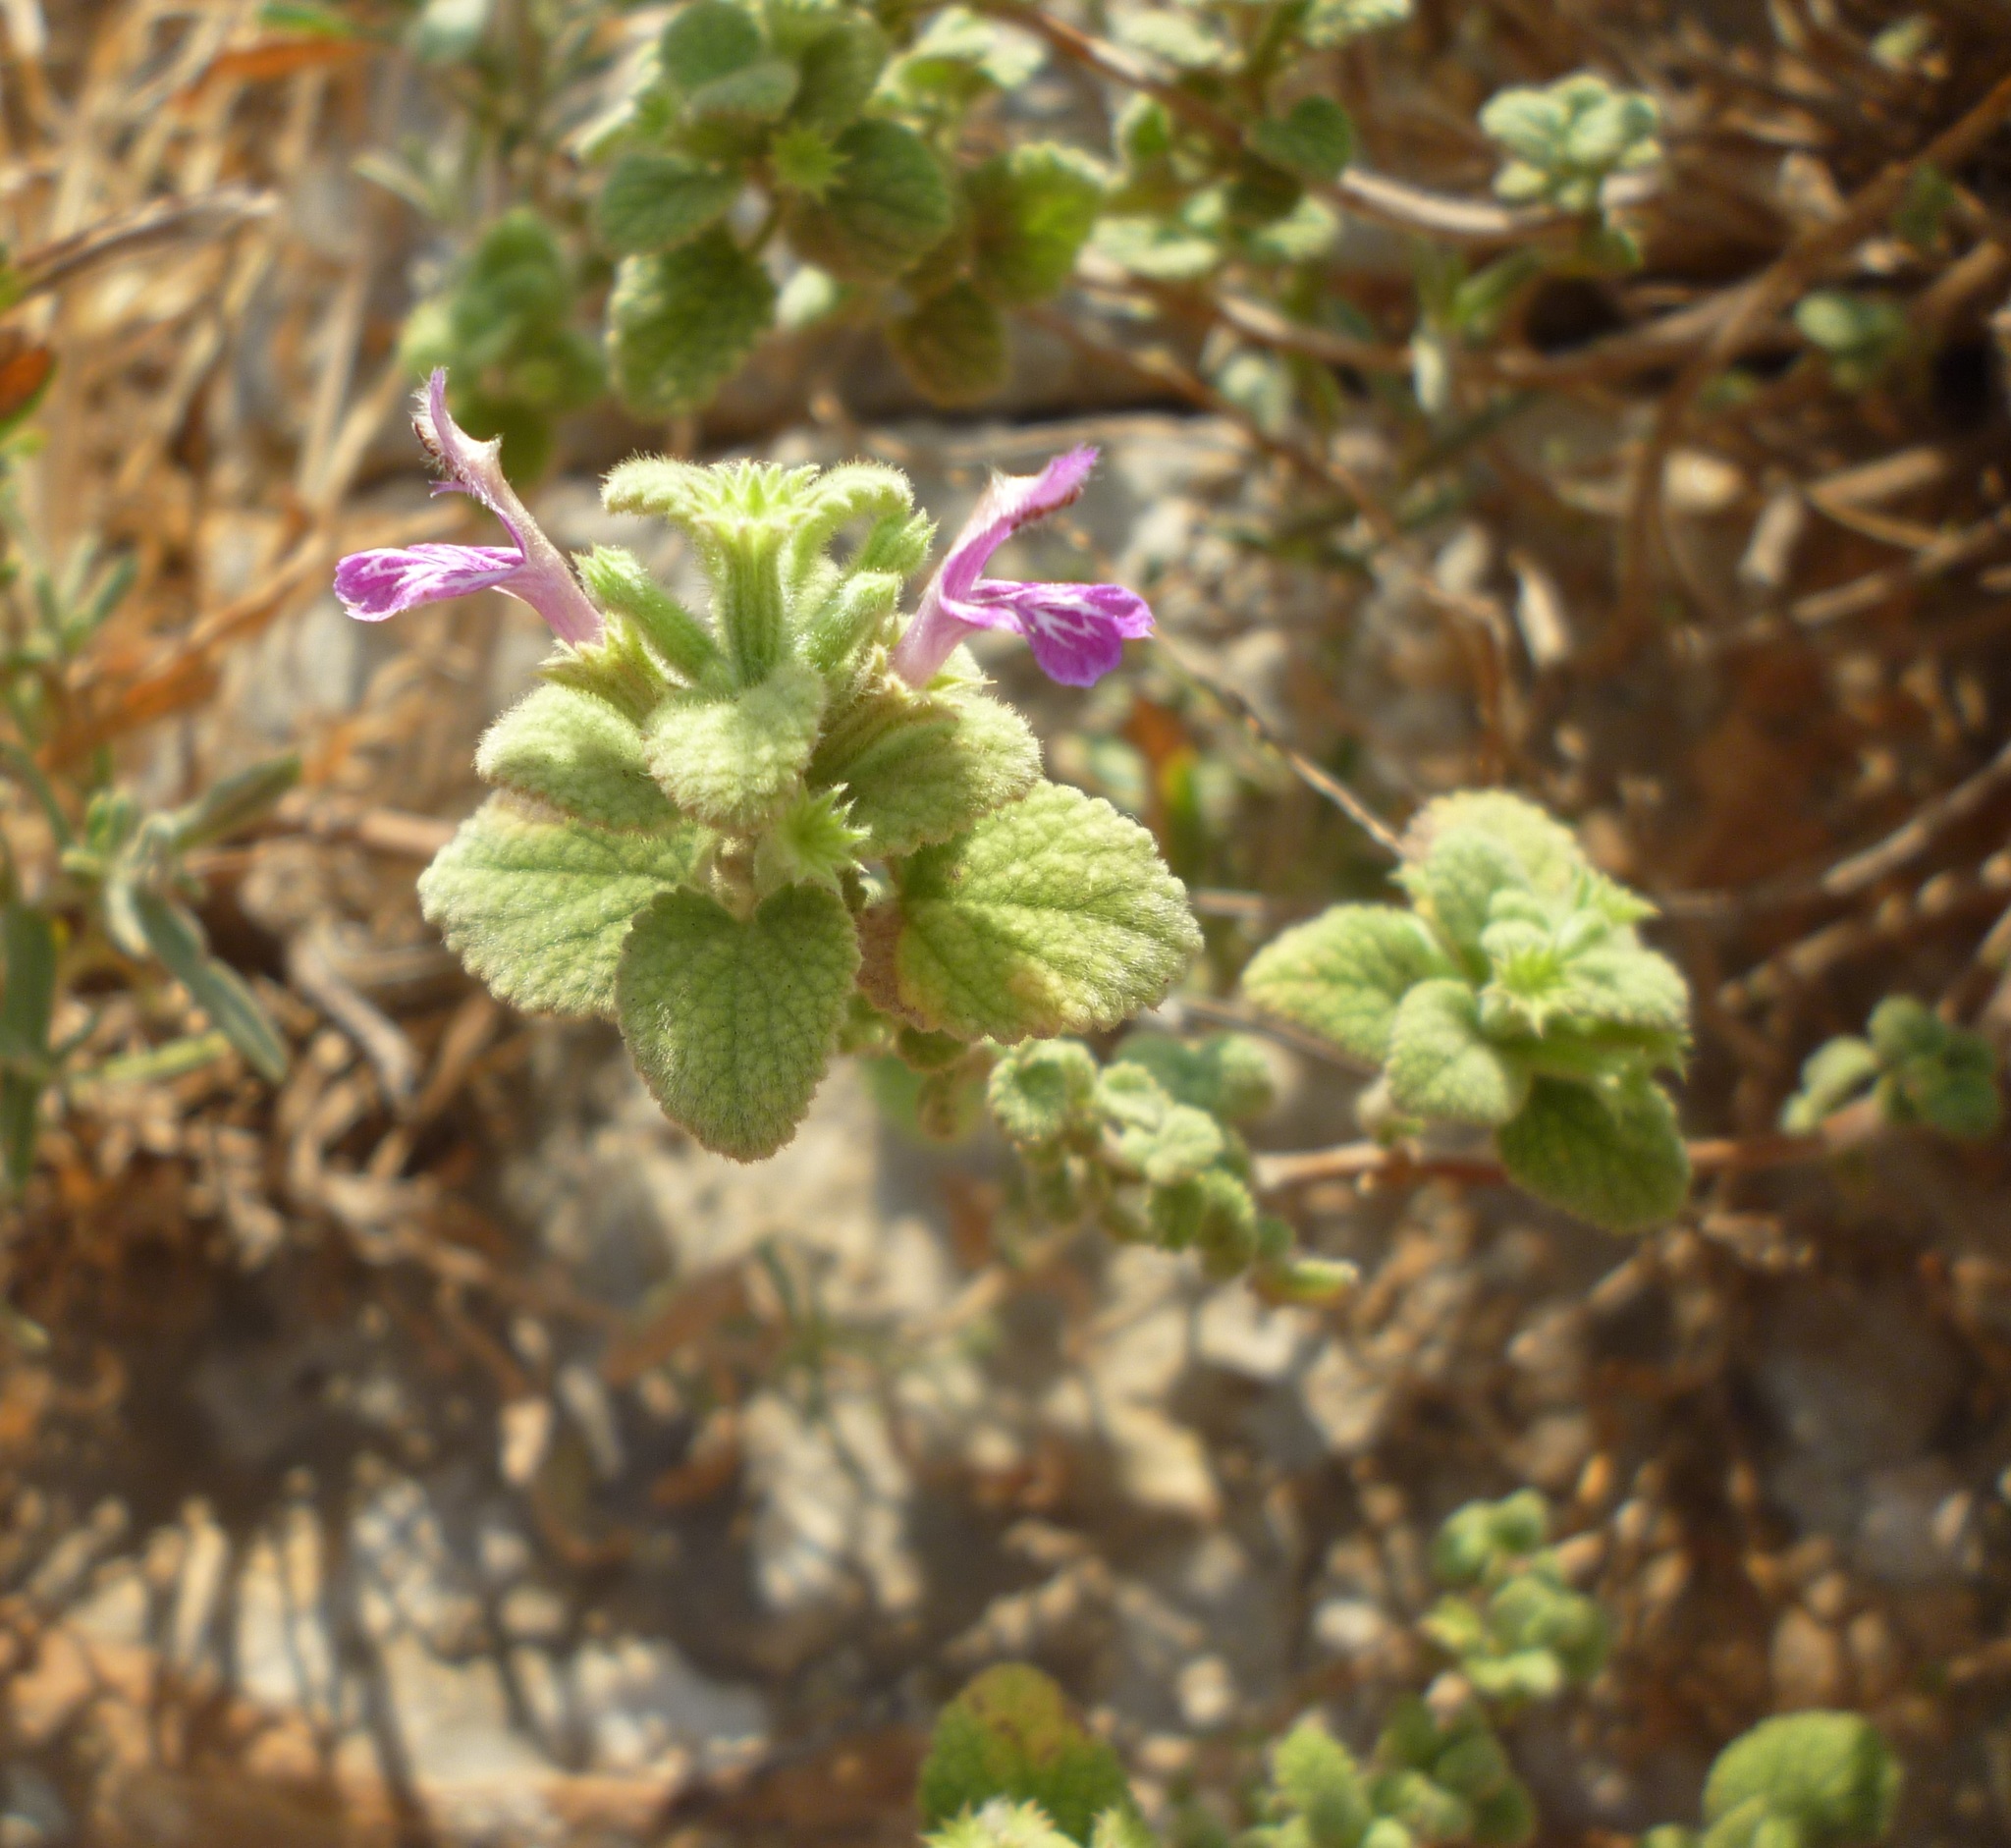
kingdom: Plantae
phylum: Tracheophyta
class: Magnoliopsida
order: Lamiales
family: Lamiaceae
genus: Ballota
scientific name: Ballota saxatilis
